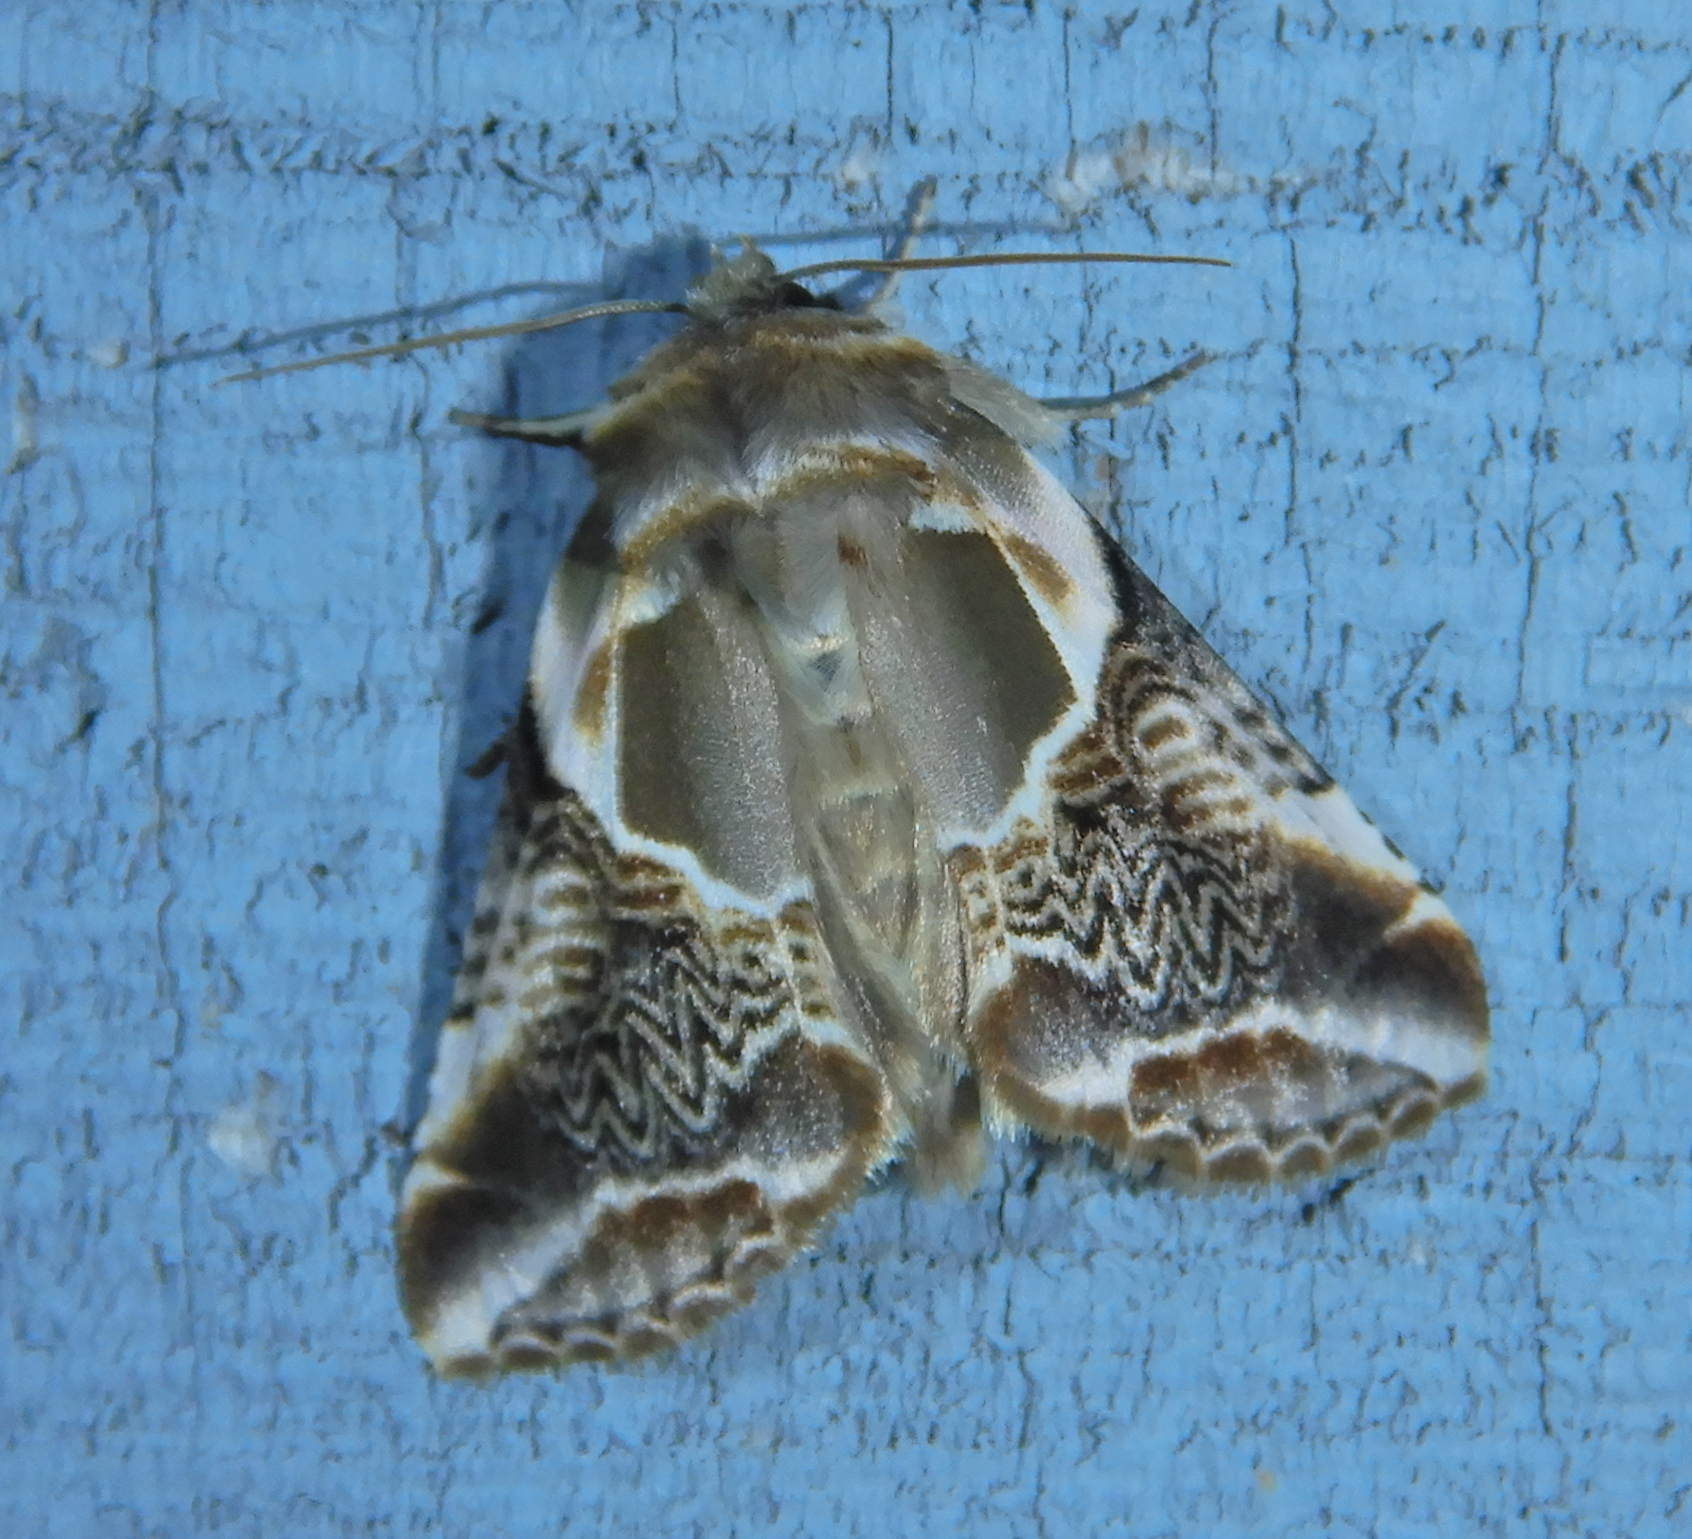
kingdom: Animalia
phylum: Arthropoda
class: Insecta
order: Lepidoptera
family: Drepanidae
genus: Habrosyne
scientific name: Habrosyne scripta
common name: Lettered habrosyne moth
